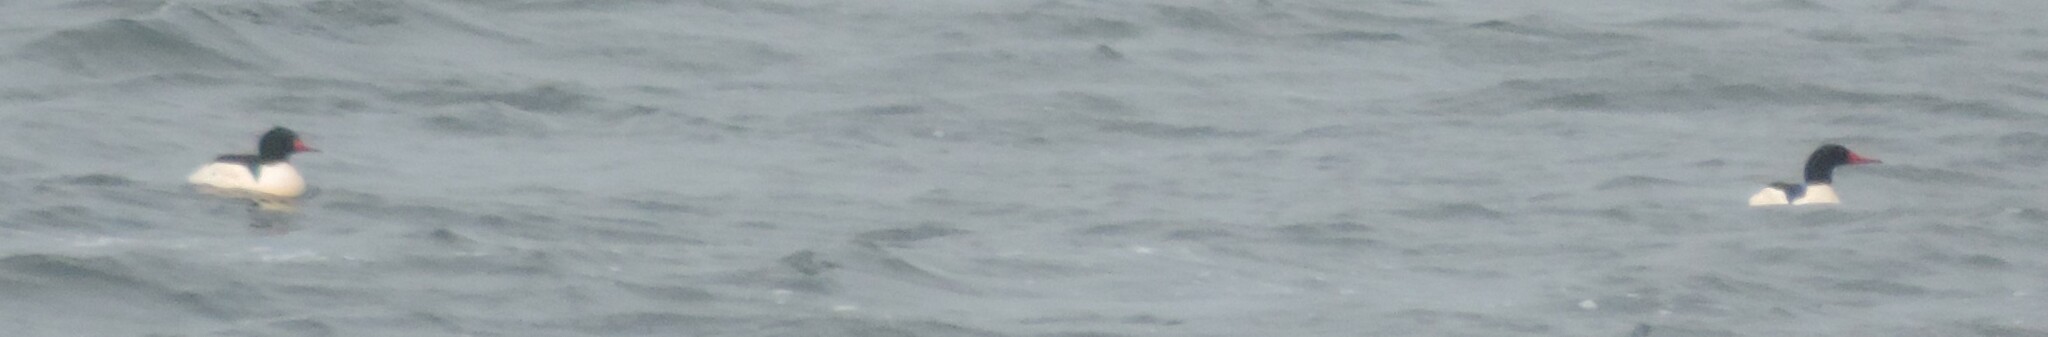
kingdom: Animalia
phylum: Chordata
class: Aves
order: Anseriformes
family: Anatidae
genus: Mergus
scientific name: Mergus merganser
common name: Common merganser
